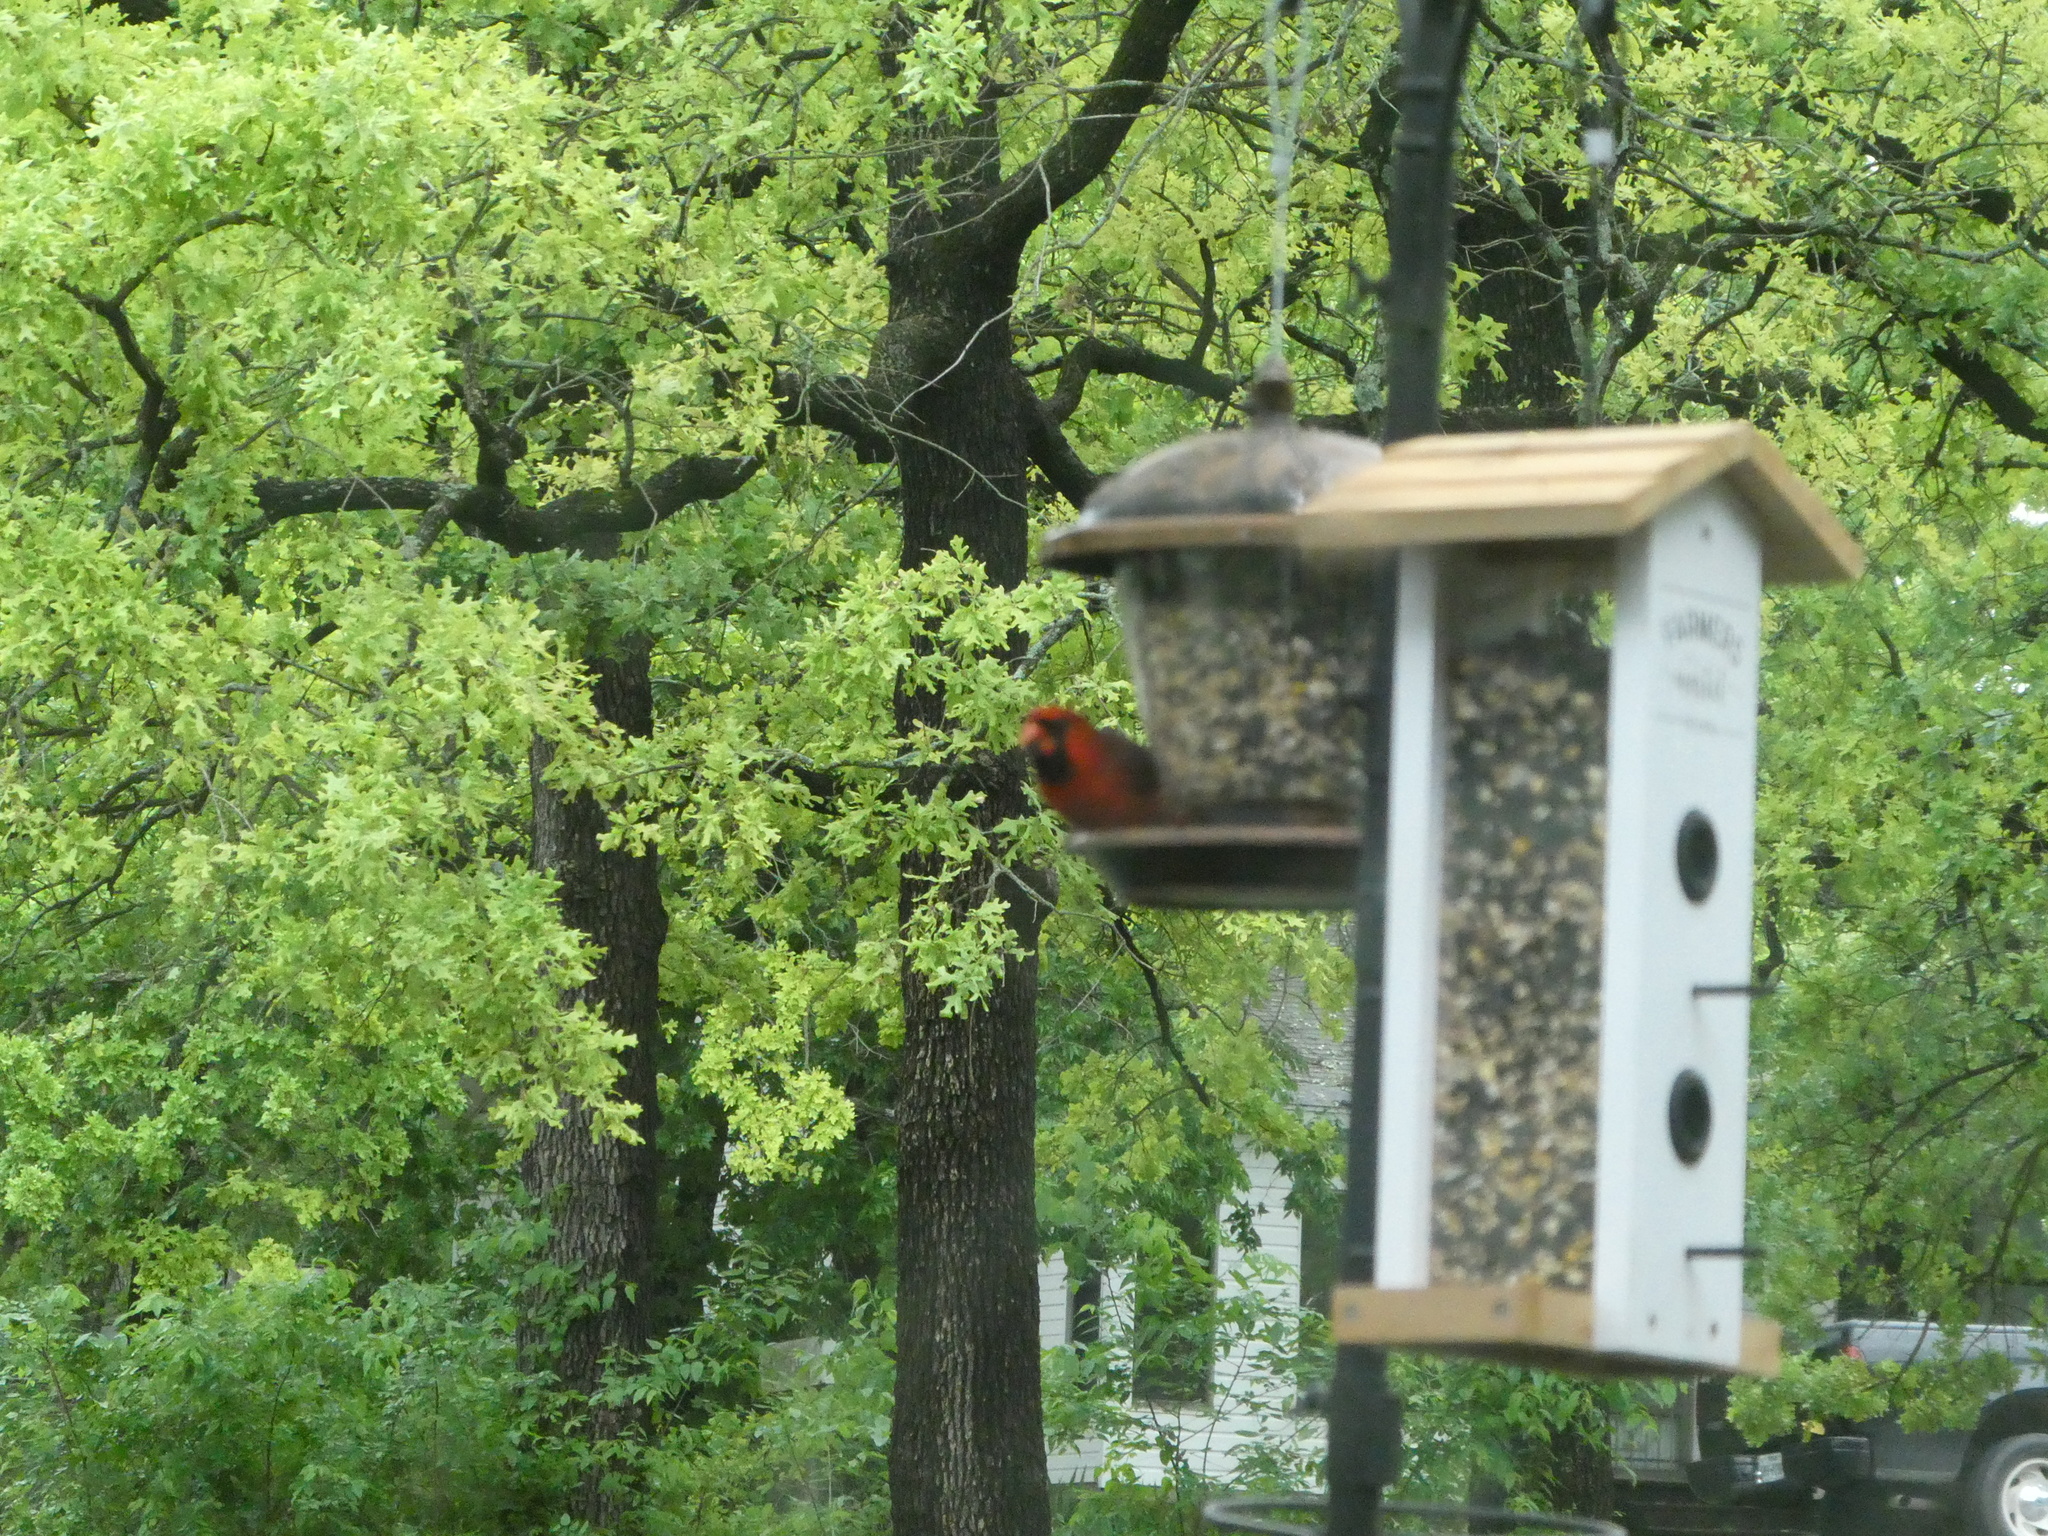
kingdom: Animalia
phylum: Chordata
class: Aves
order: Passeriformes
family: Cardinalidae
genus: Cardinalis
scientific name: Cardinalis cardinalis
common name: Northern cardinal
